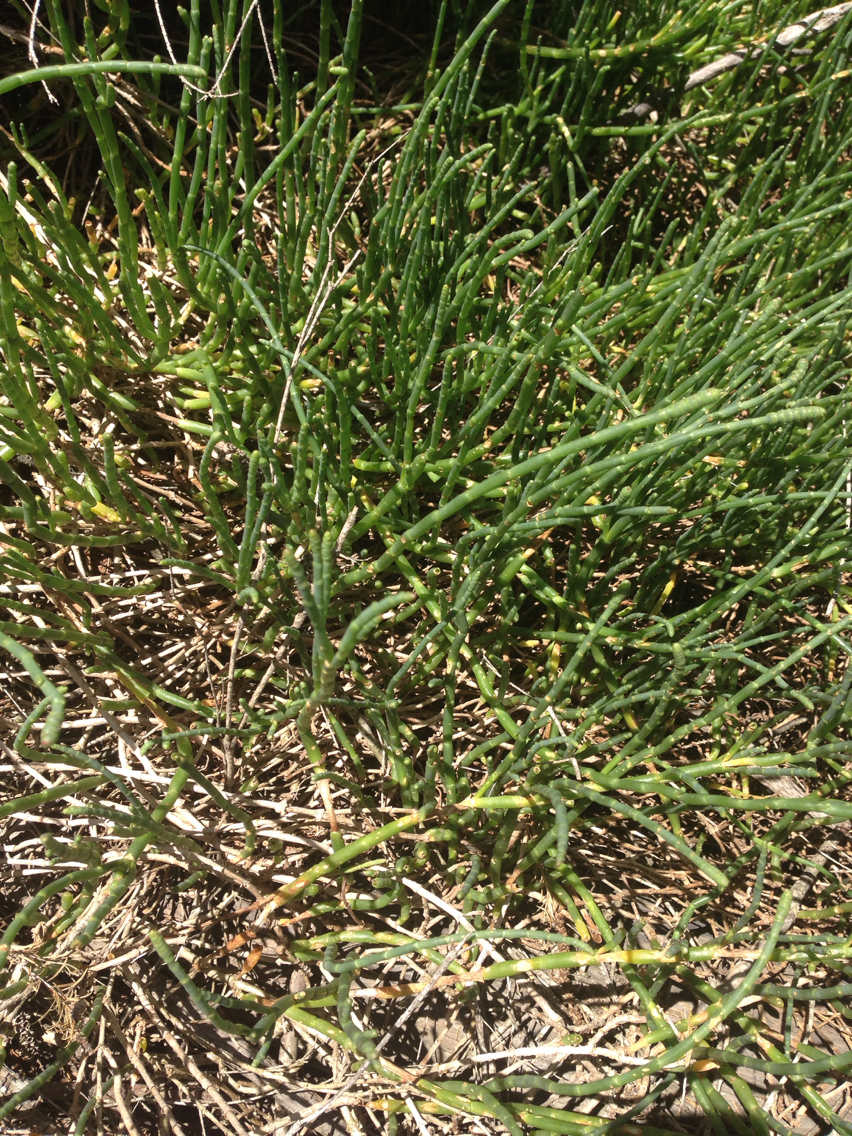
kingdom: Plantae
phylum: Tracheophyta
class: Magnoliopsida
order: Caryophyllales
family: Amaranthaceae
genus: Salicornia
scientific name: Salicornia quinqueflora
